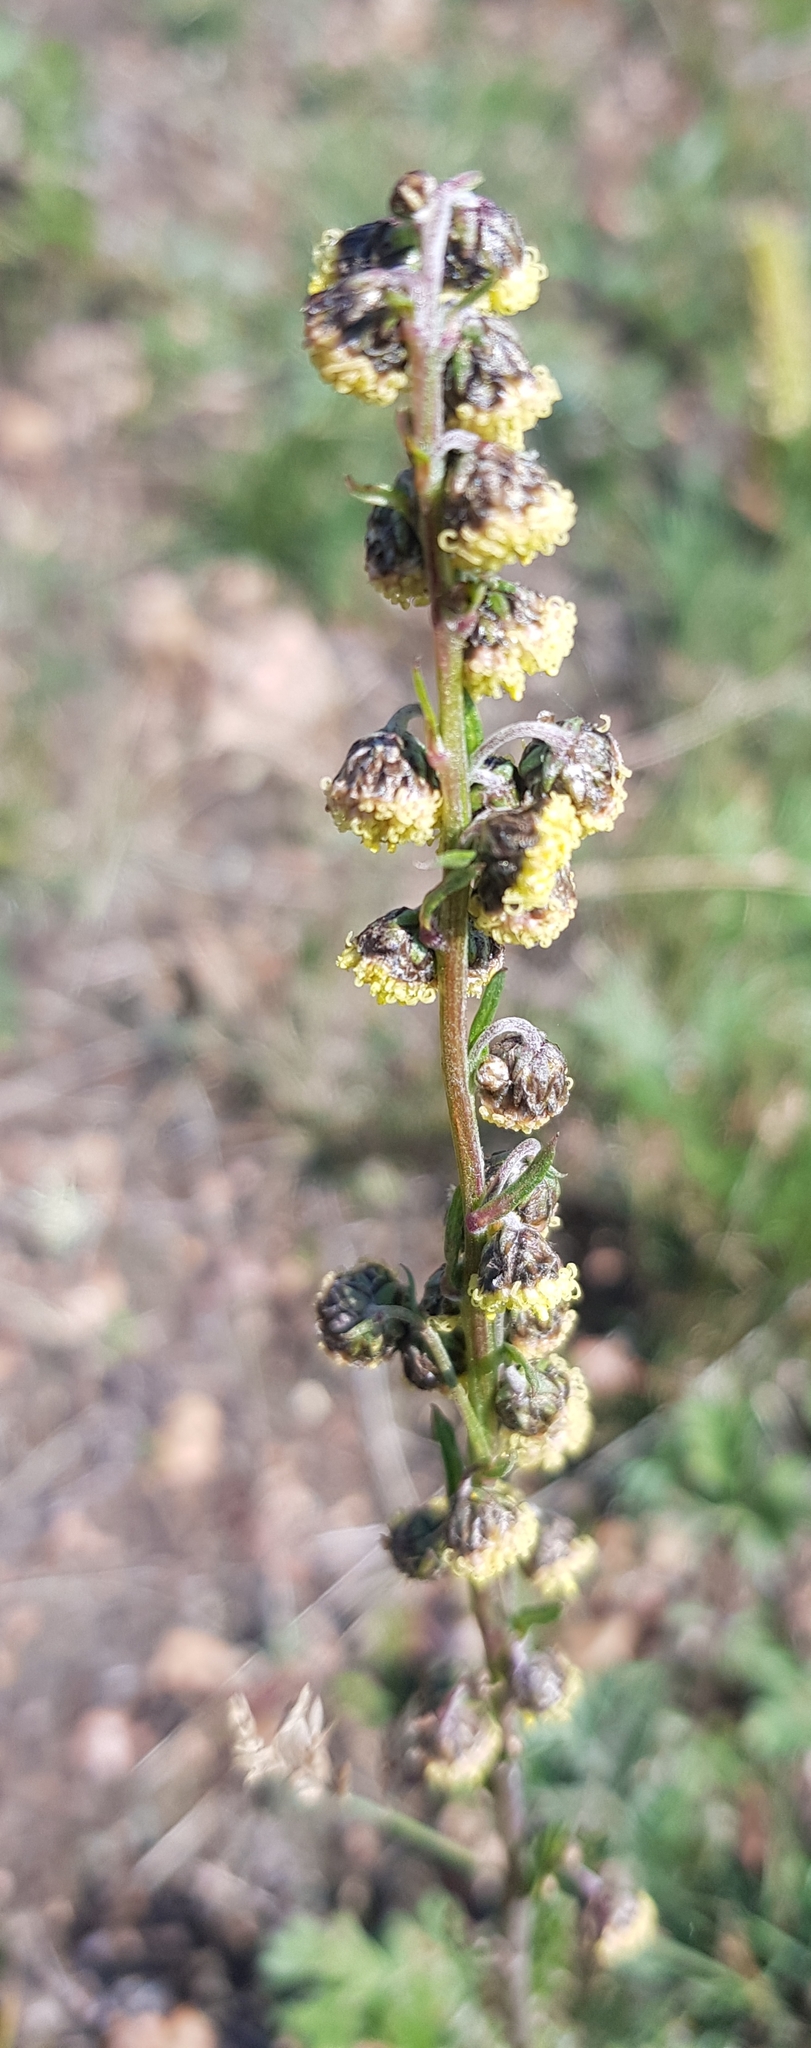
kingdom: Plantae
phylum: Tracheophyta
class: Magnoliopsida
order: Asterales
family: Asteraceae
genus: Artemisia
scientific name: Artemisia tanacetifolia
